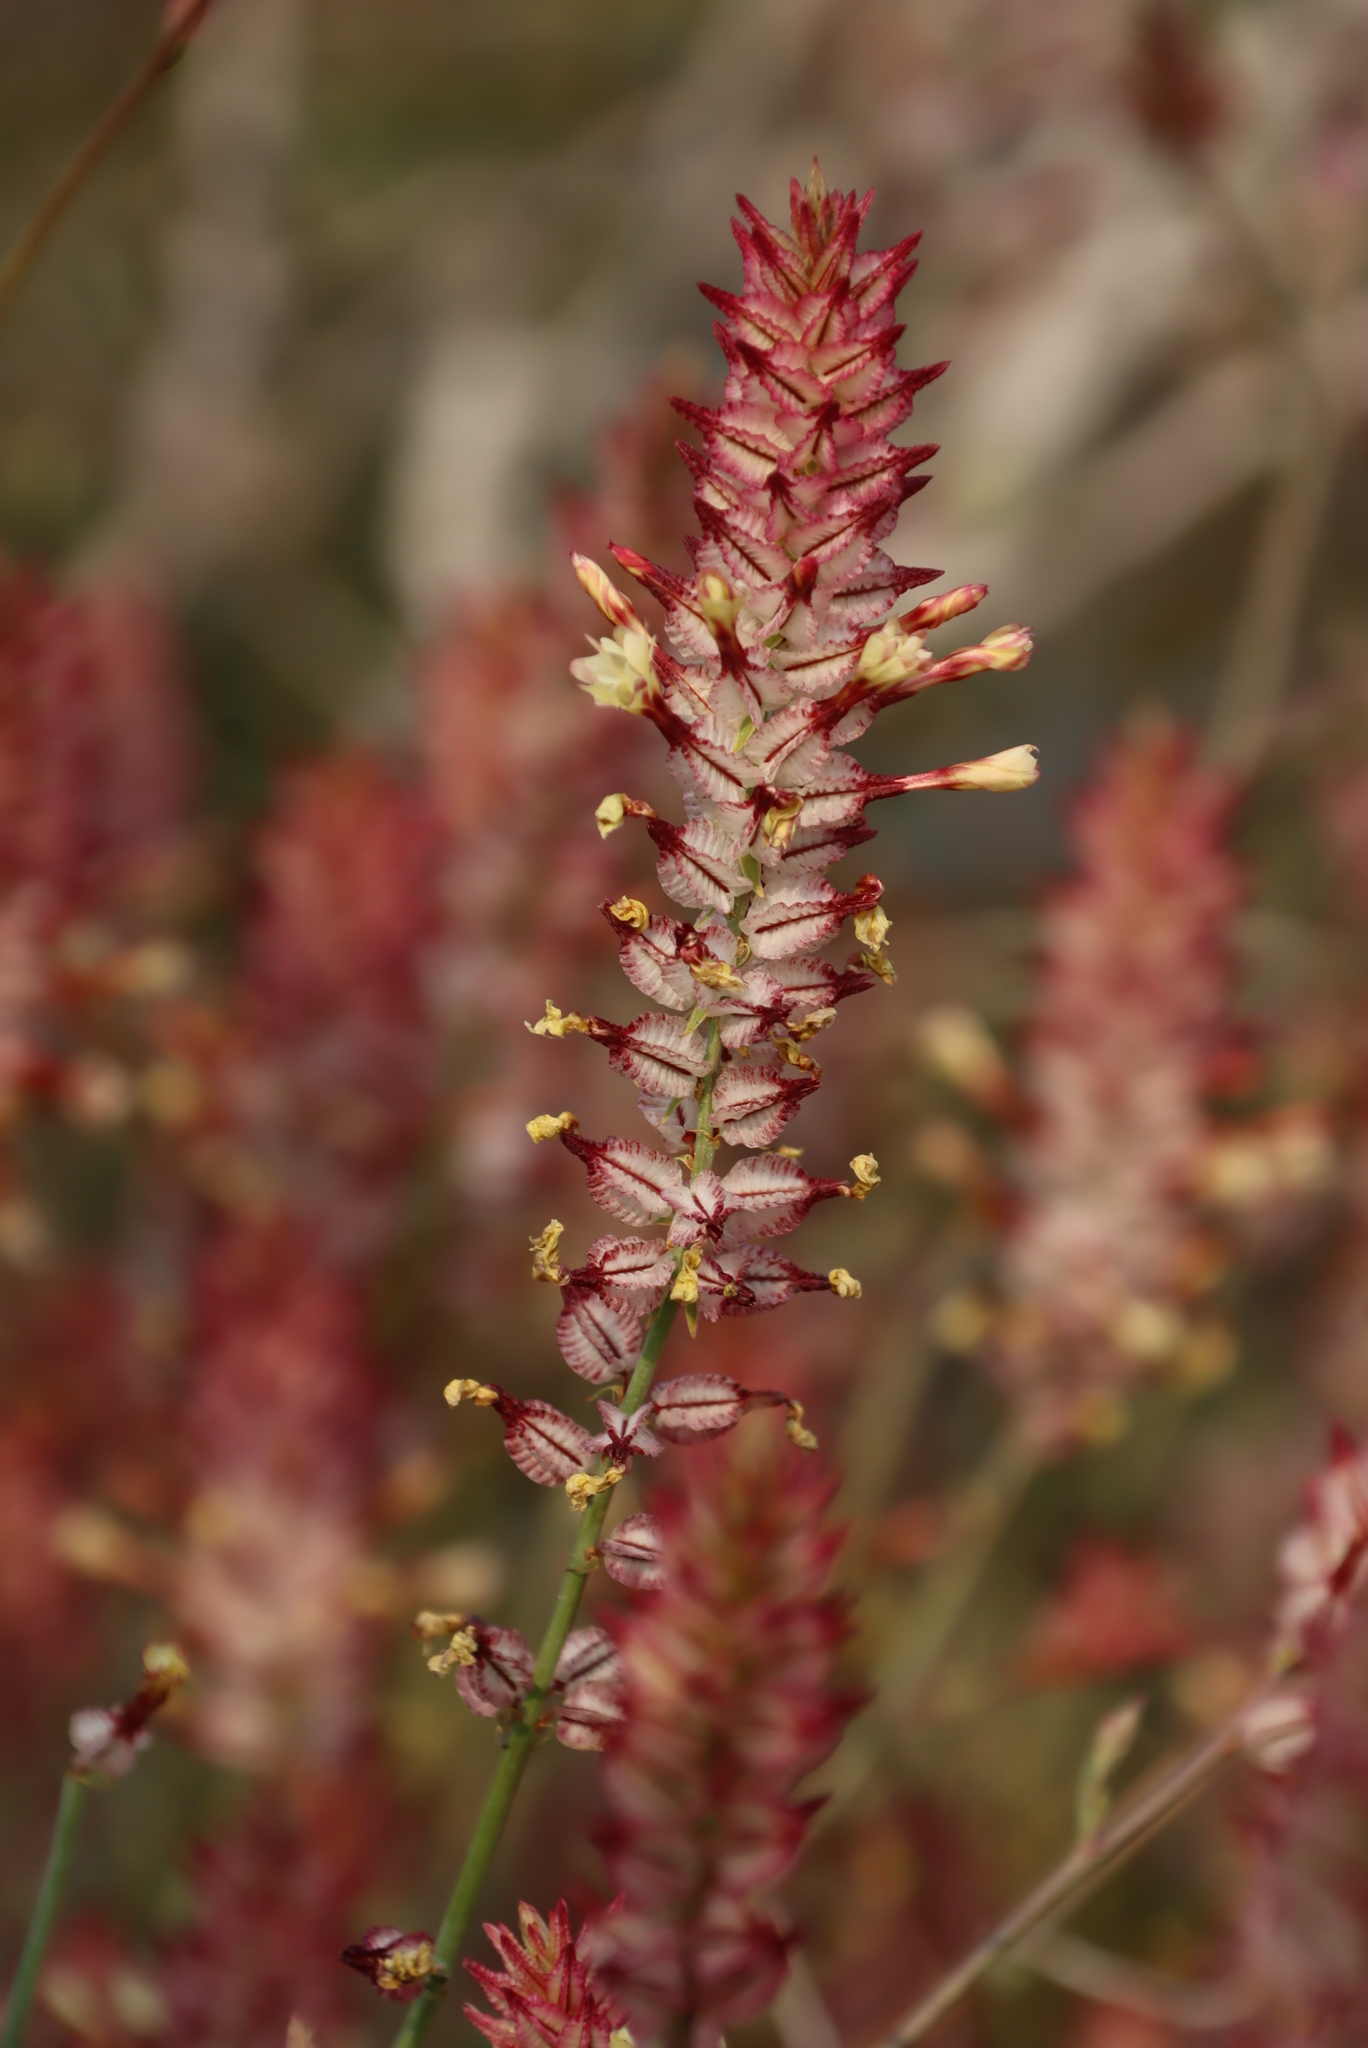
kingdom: Plantae
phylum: Tracheophyta
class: Magnoliopsida
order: Caryophyllales
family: Plumbaginaceae
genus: Dyerophytum
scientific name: Dyerophytum africanum
